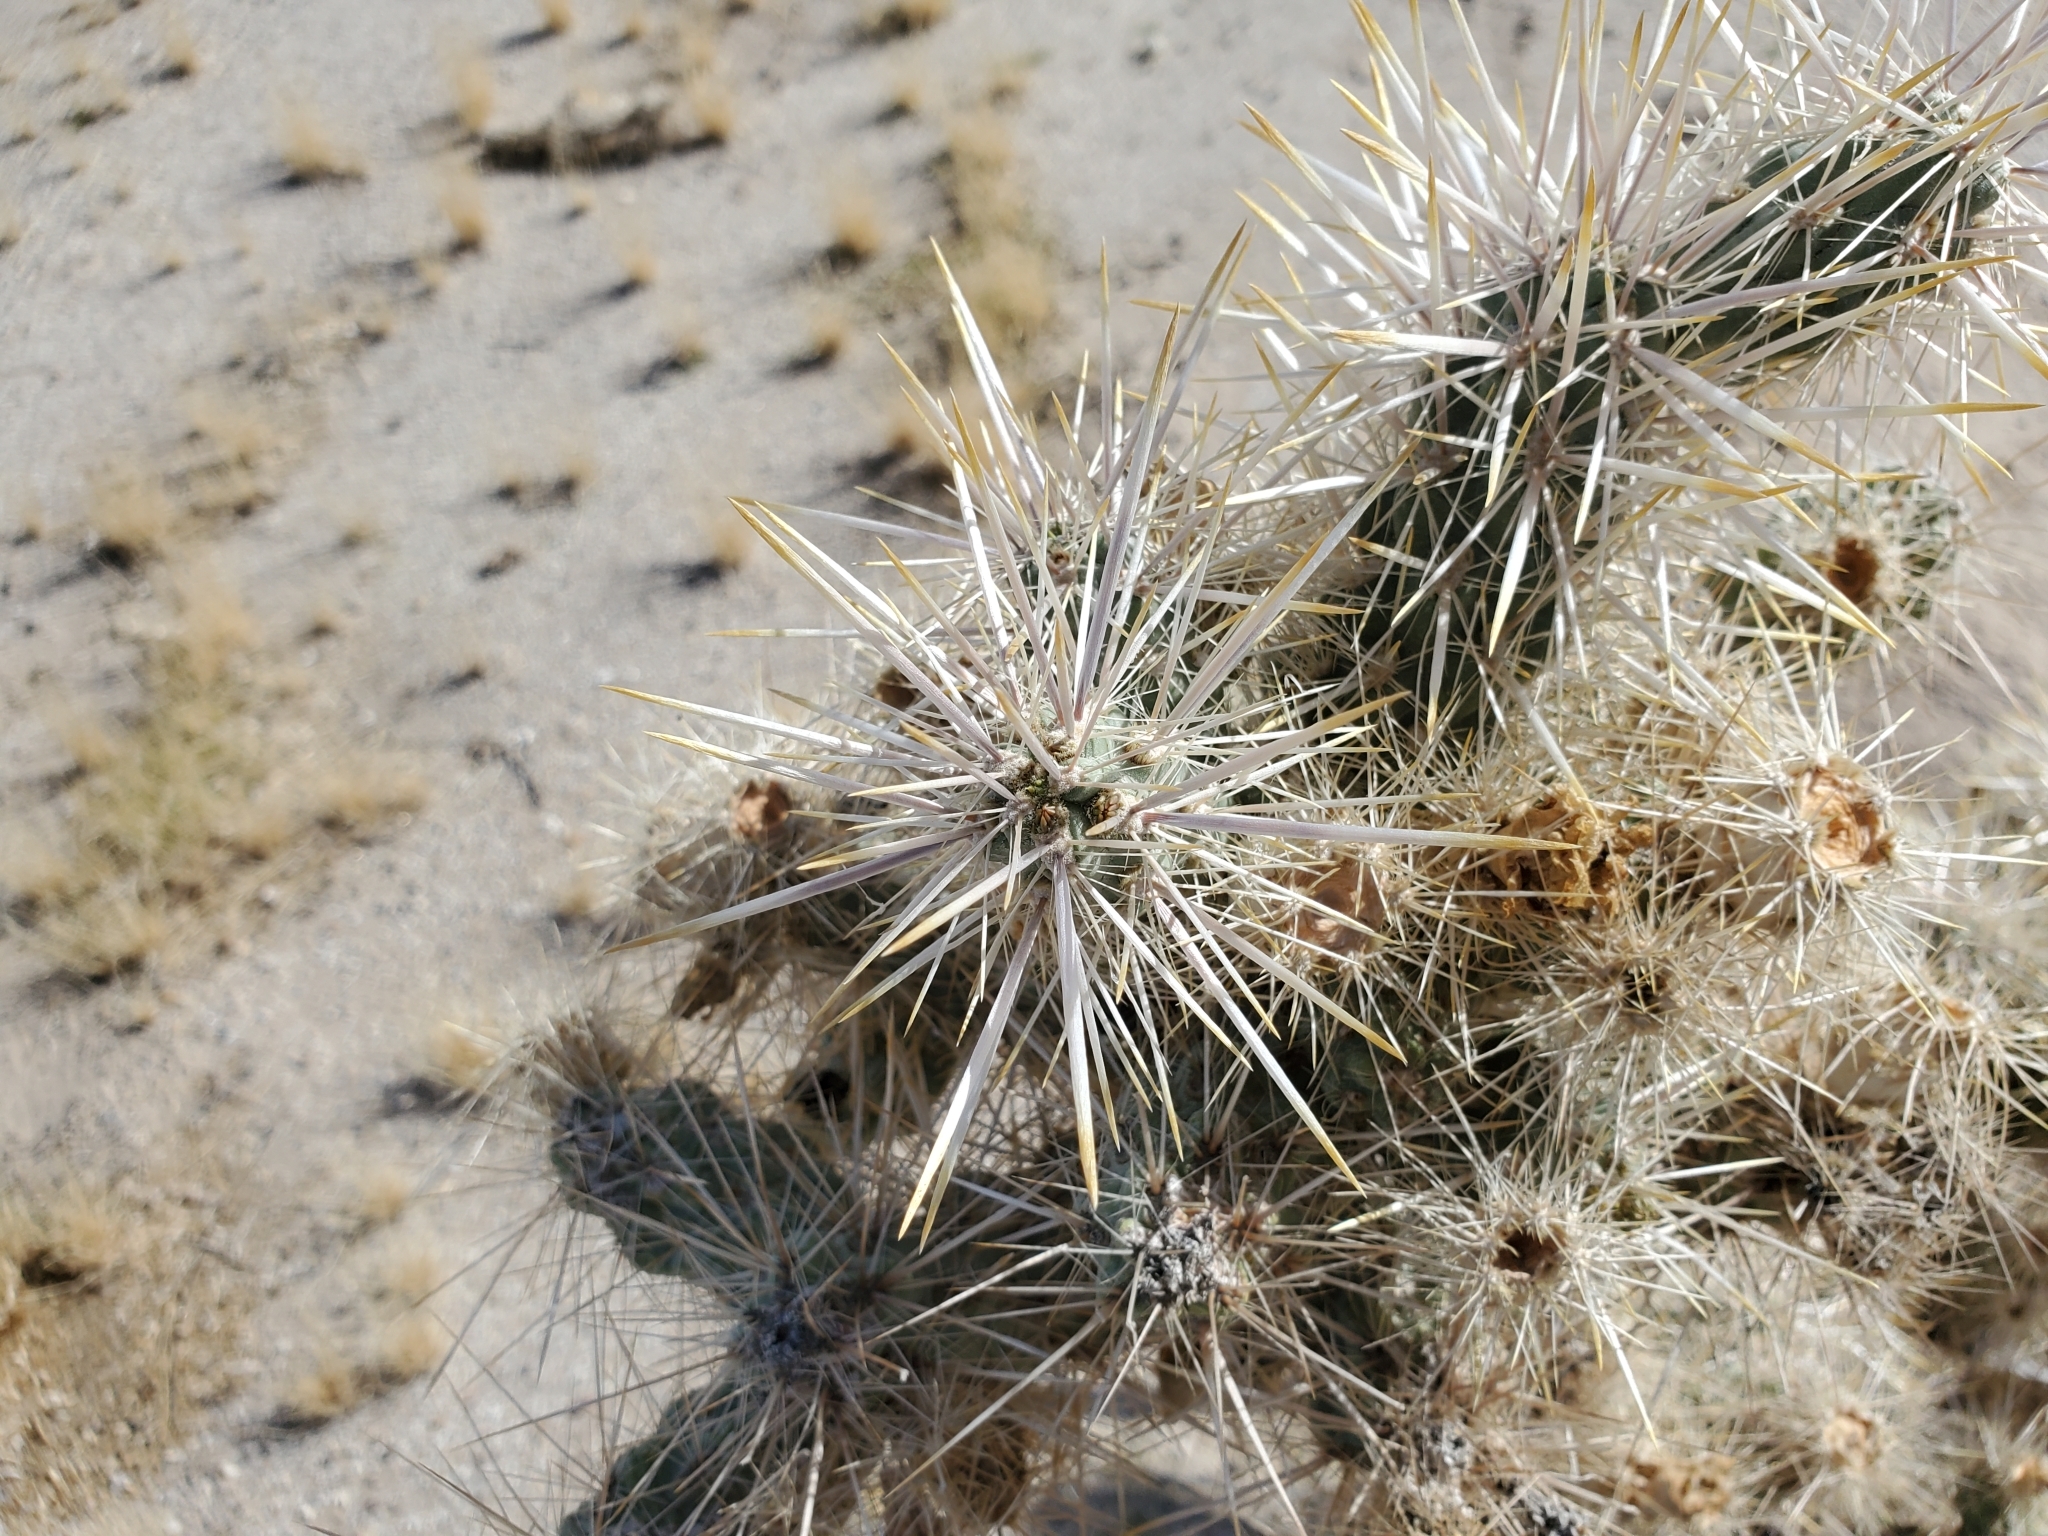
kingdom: Plantae
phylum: Tracheophyta
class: Magnoliopsida
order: Caryophyllales
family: Cactaceae
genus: Cylindropuntia
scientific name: Cylindropuntia echinocarpa
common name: Ground cholla
